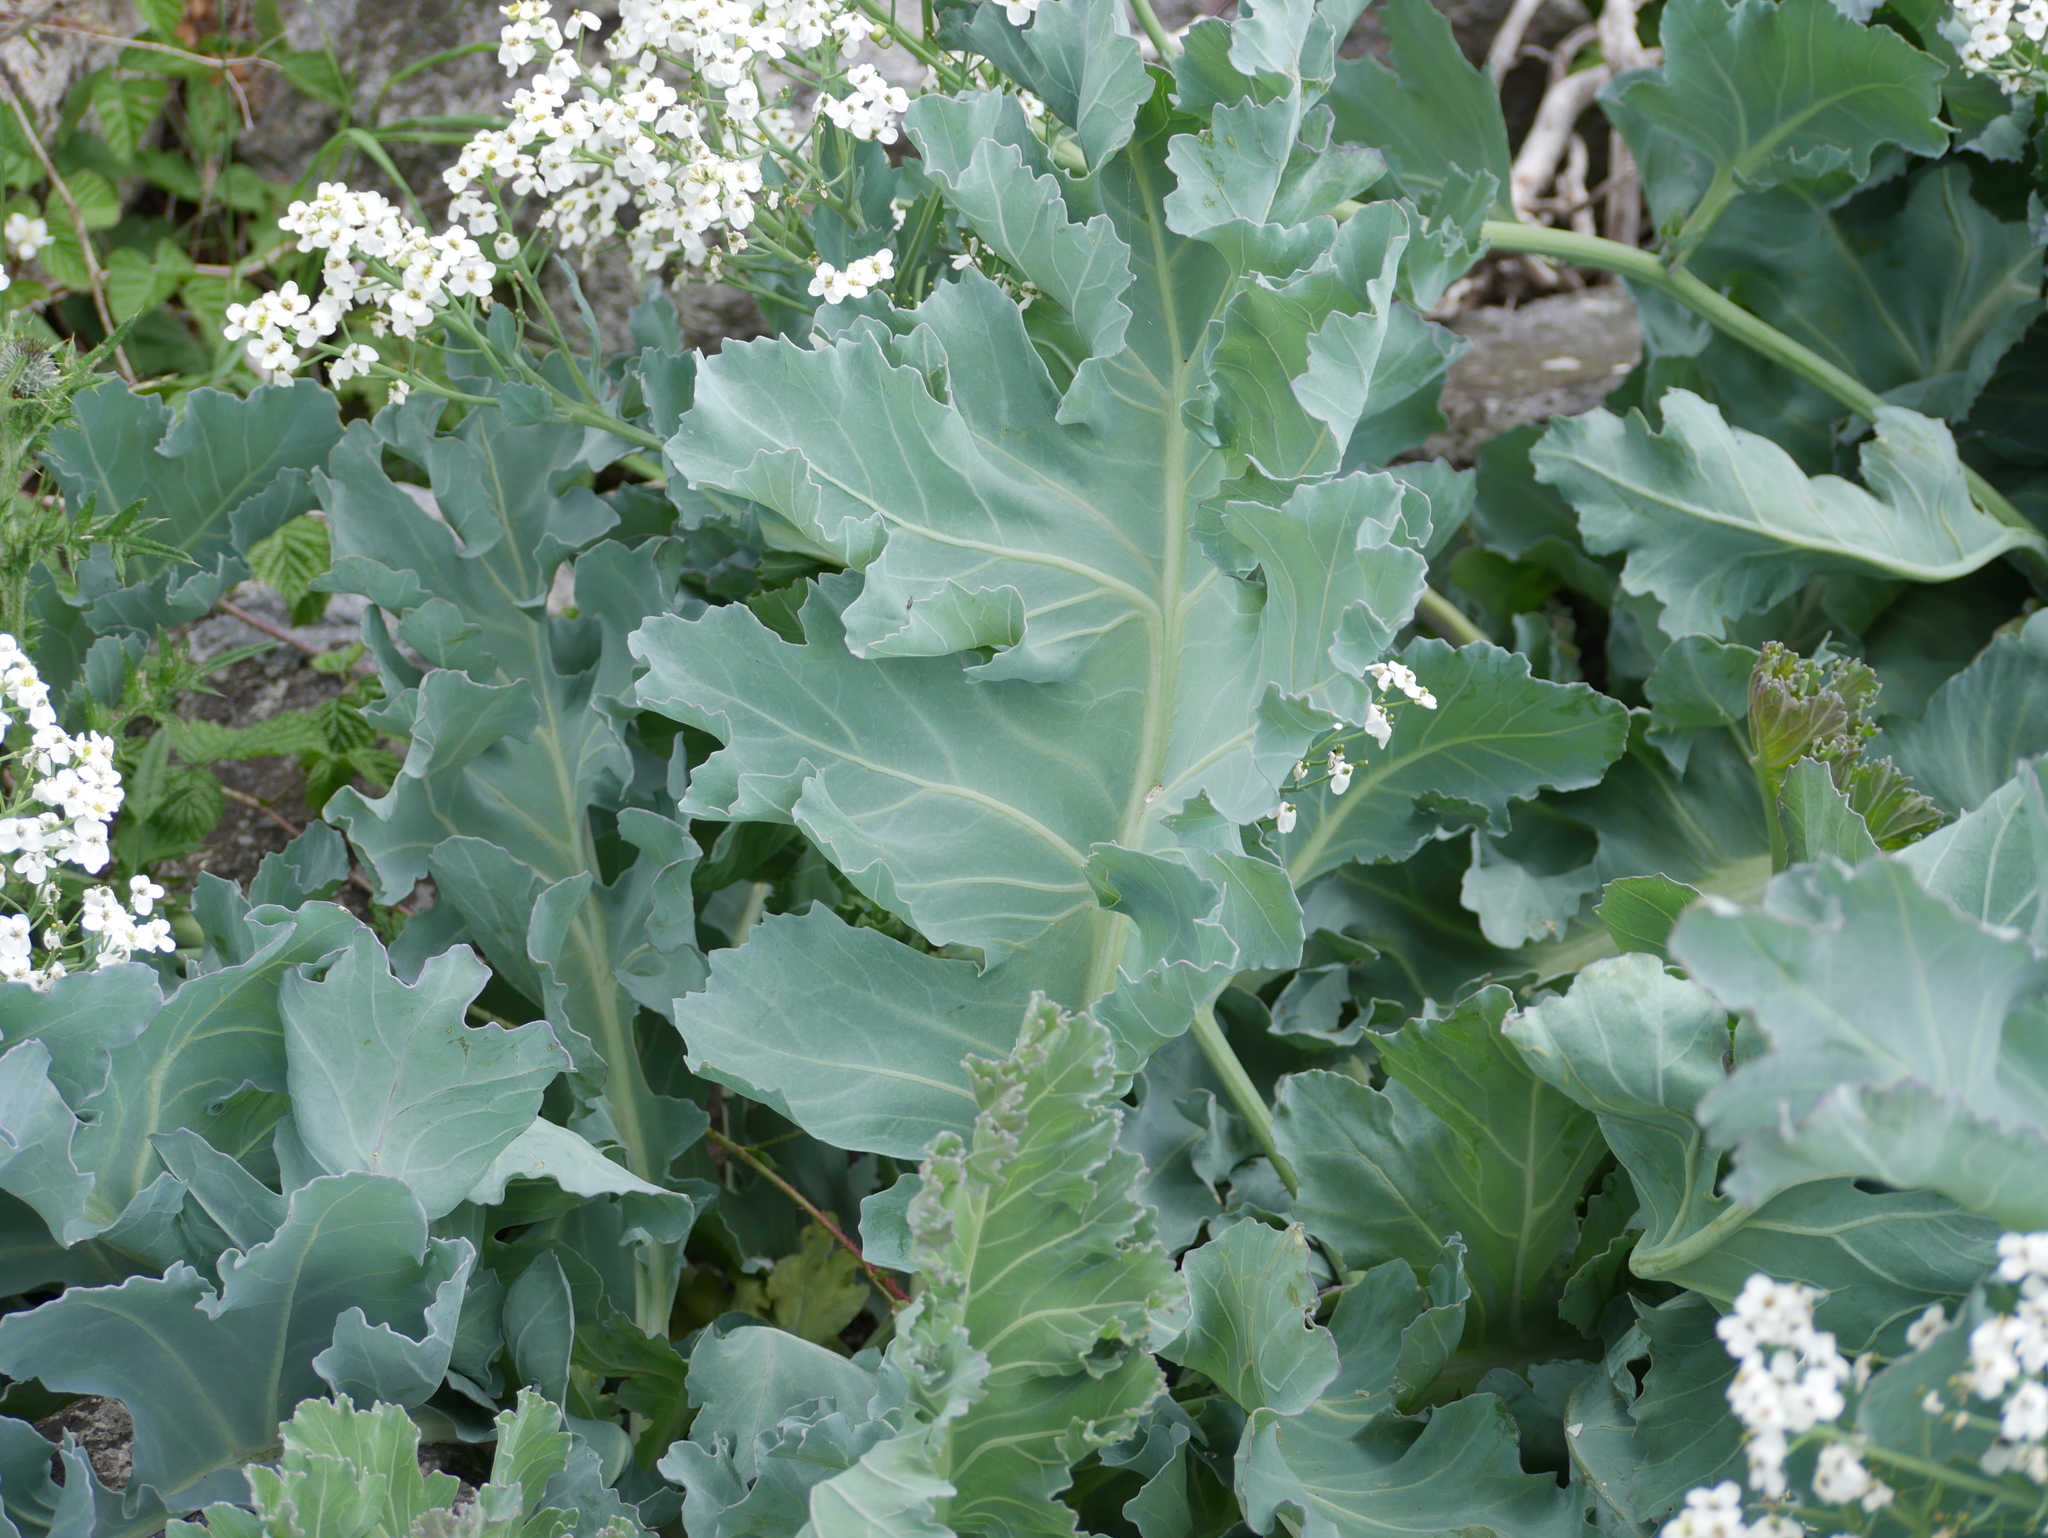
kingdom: Plantae
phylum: Tracheophyta
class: Magnoliopsida
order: Brassicales
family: Brassicaceae
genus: Crambe
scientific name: Crambe maritima
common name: Sea-kale
